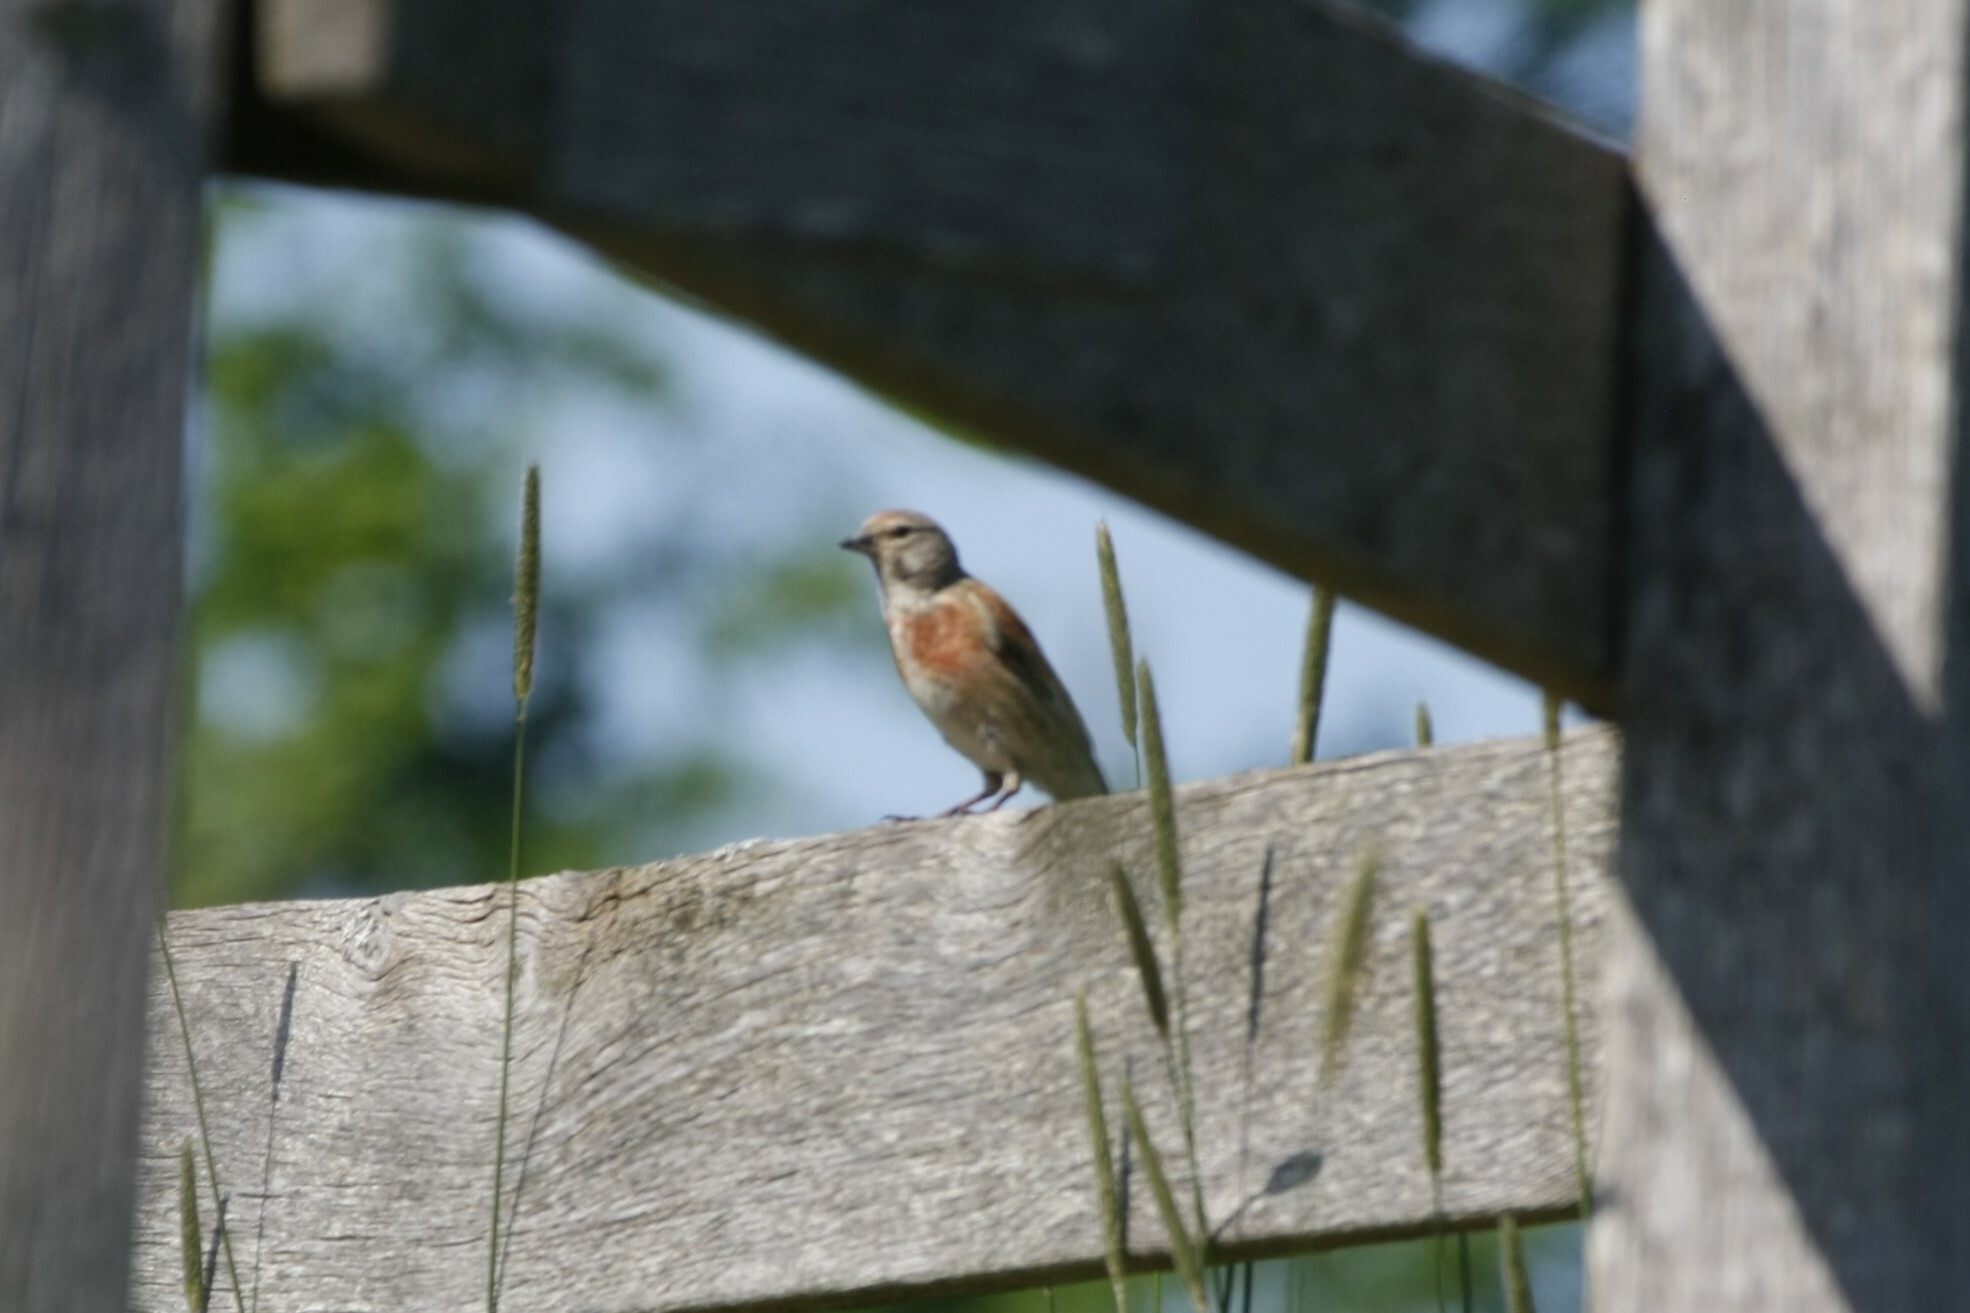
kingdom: Animalia
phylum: Chordata
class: Aves
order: Passeriformes
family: Fringillidae
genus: Linaria
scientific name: Linaria cannabina
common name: Common linnet
